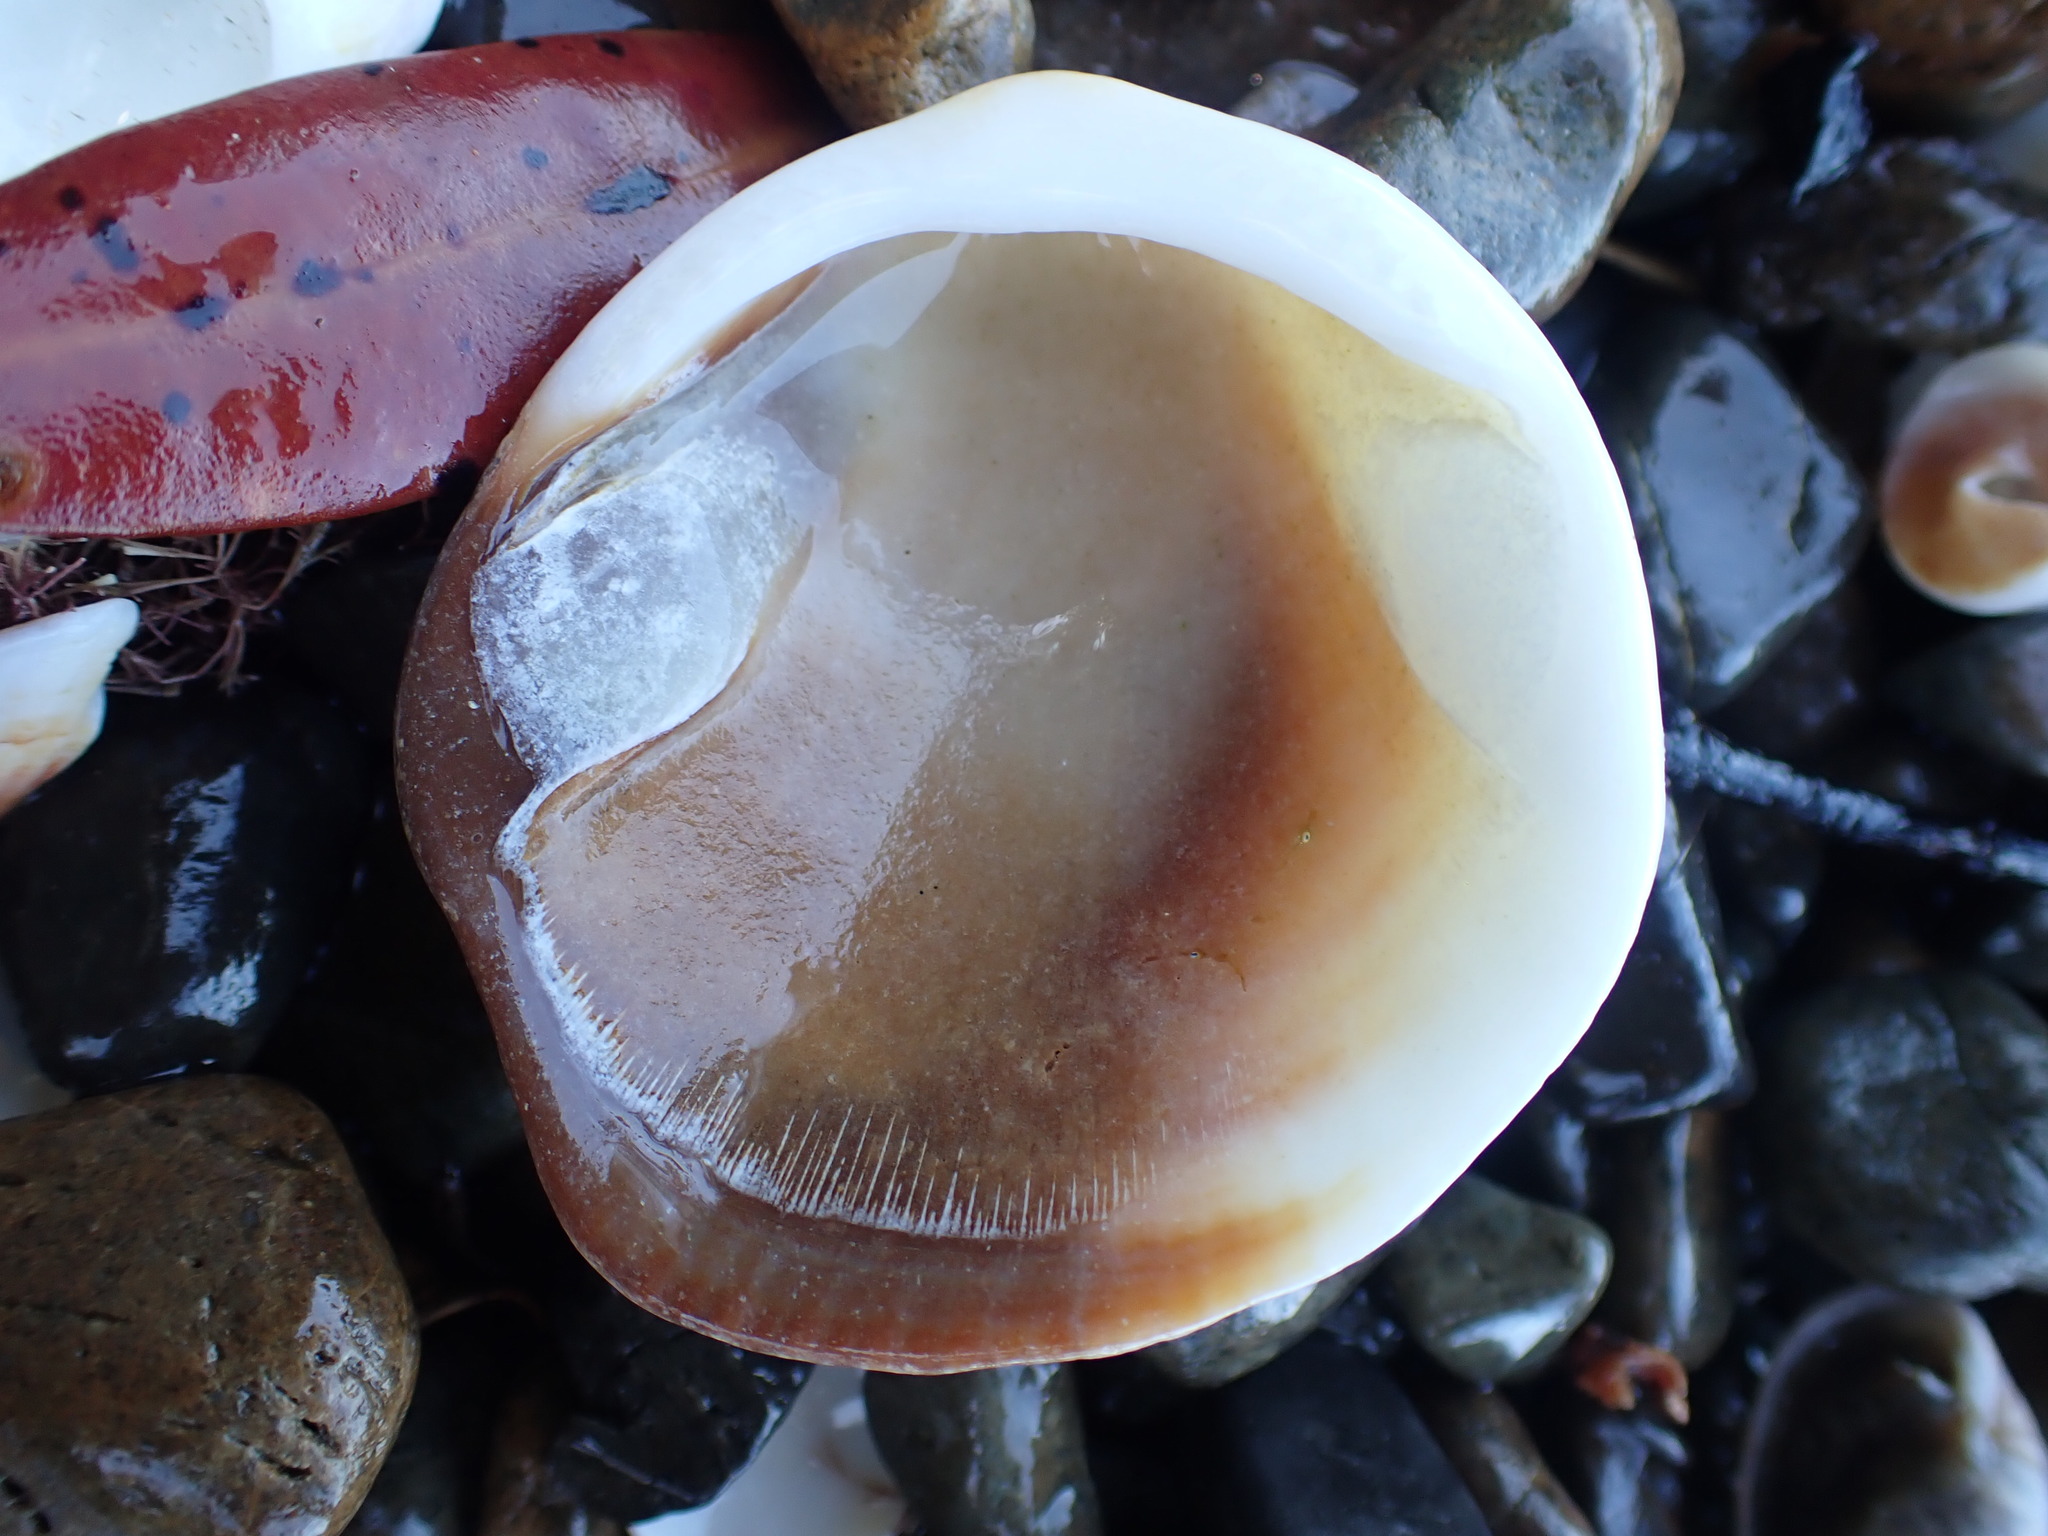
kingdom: Animalia
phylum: Mollusca
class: Bivalvia
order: Arcida
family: Glycymerididae
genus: Tucetona
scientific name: Tucetona laticostata
